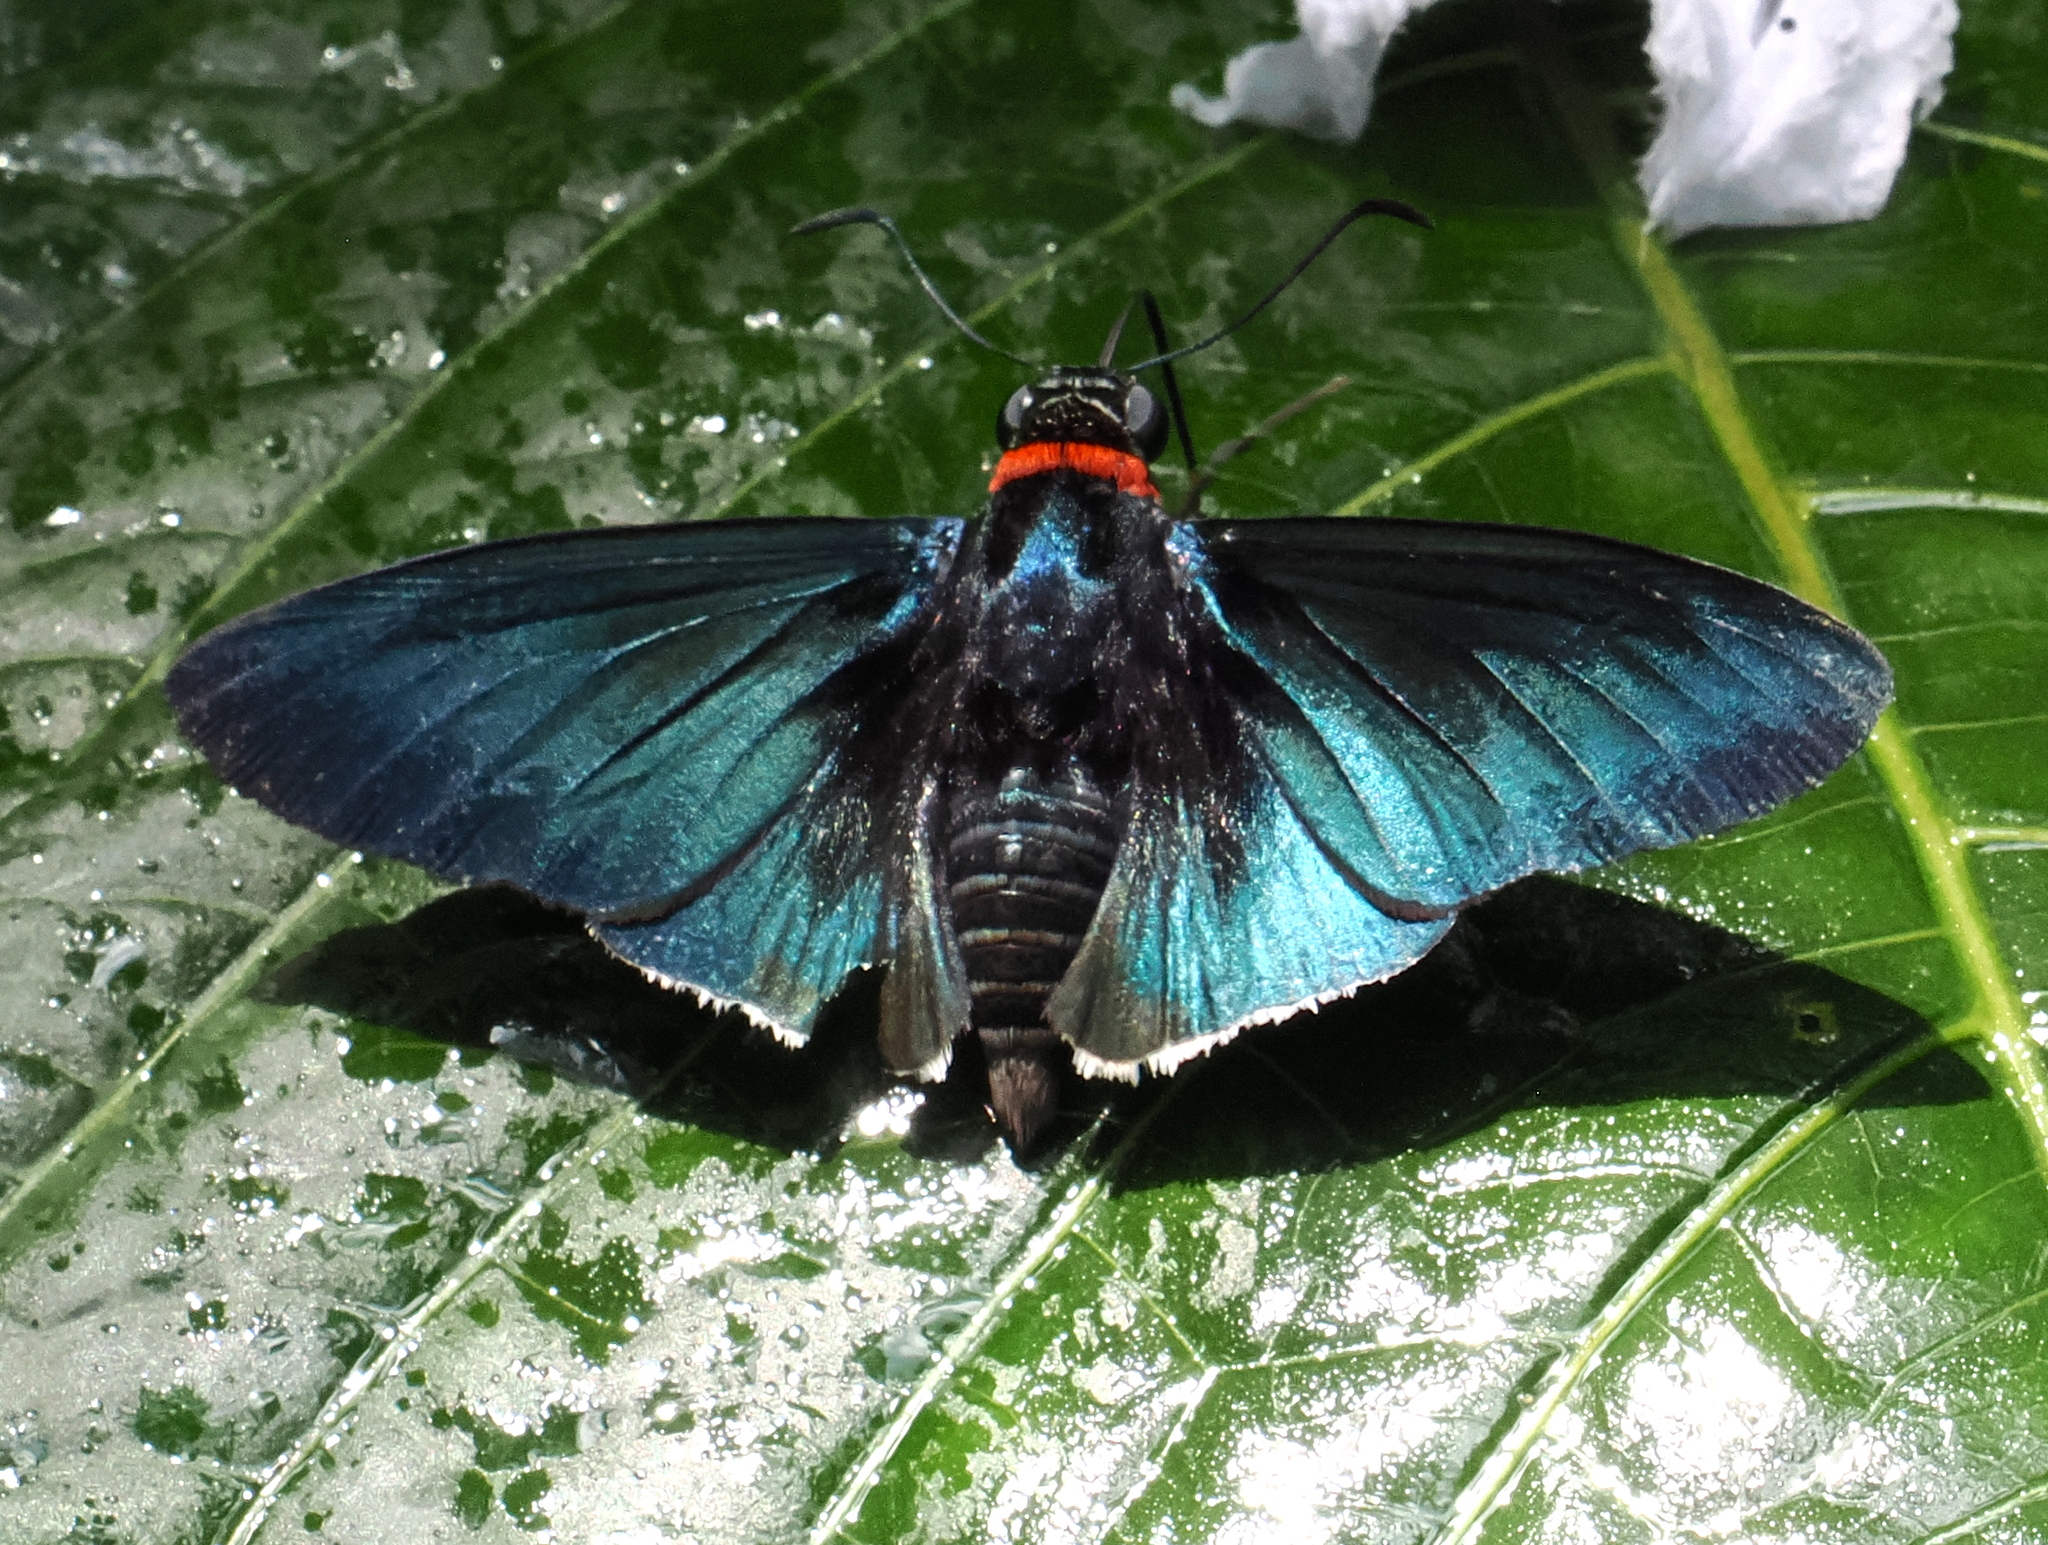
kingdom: Animalia
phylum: Arthropoda
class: Insecta
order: Lepidoptera
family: Hesperiidae
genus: Gunayan
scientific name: Gunayan
